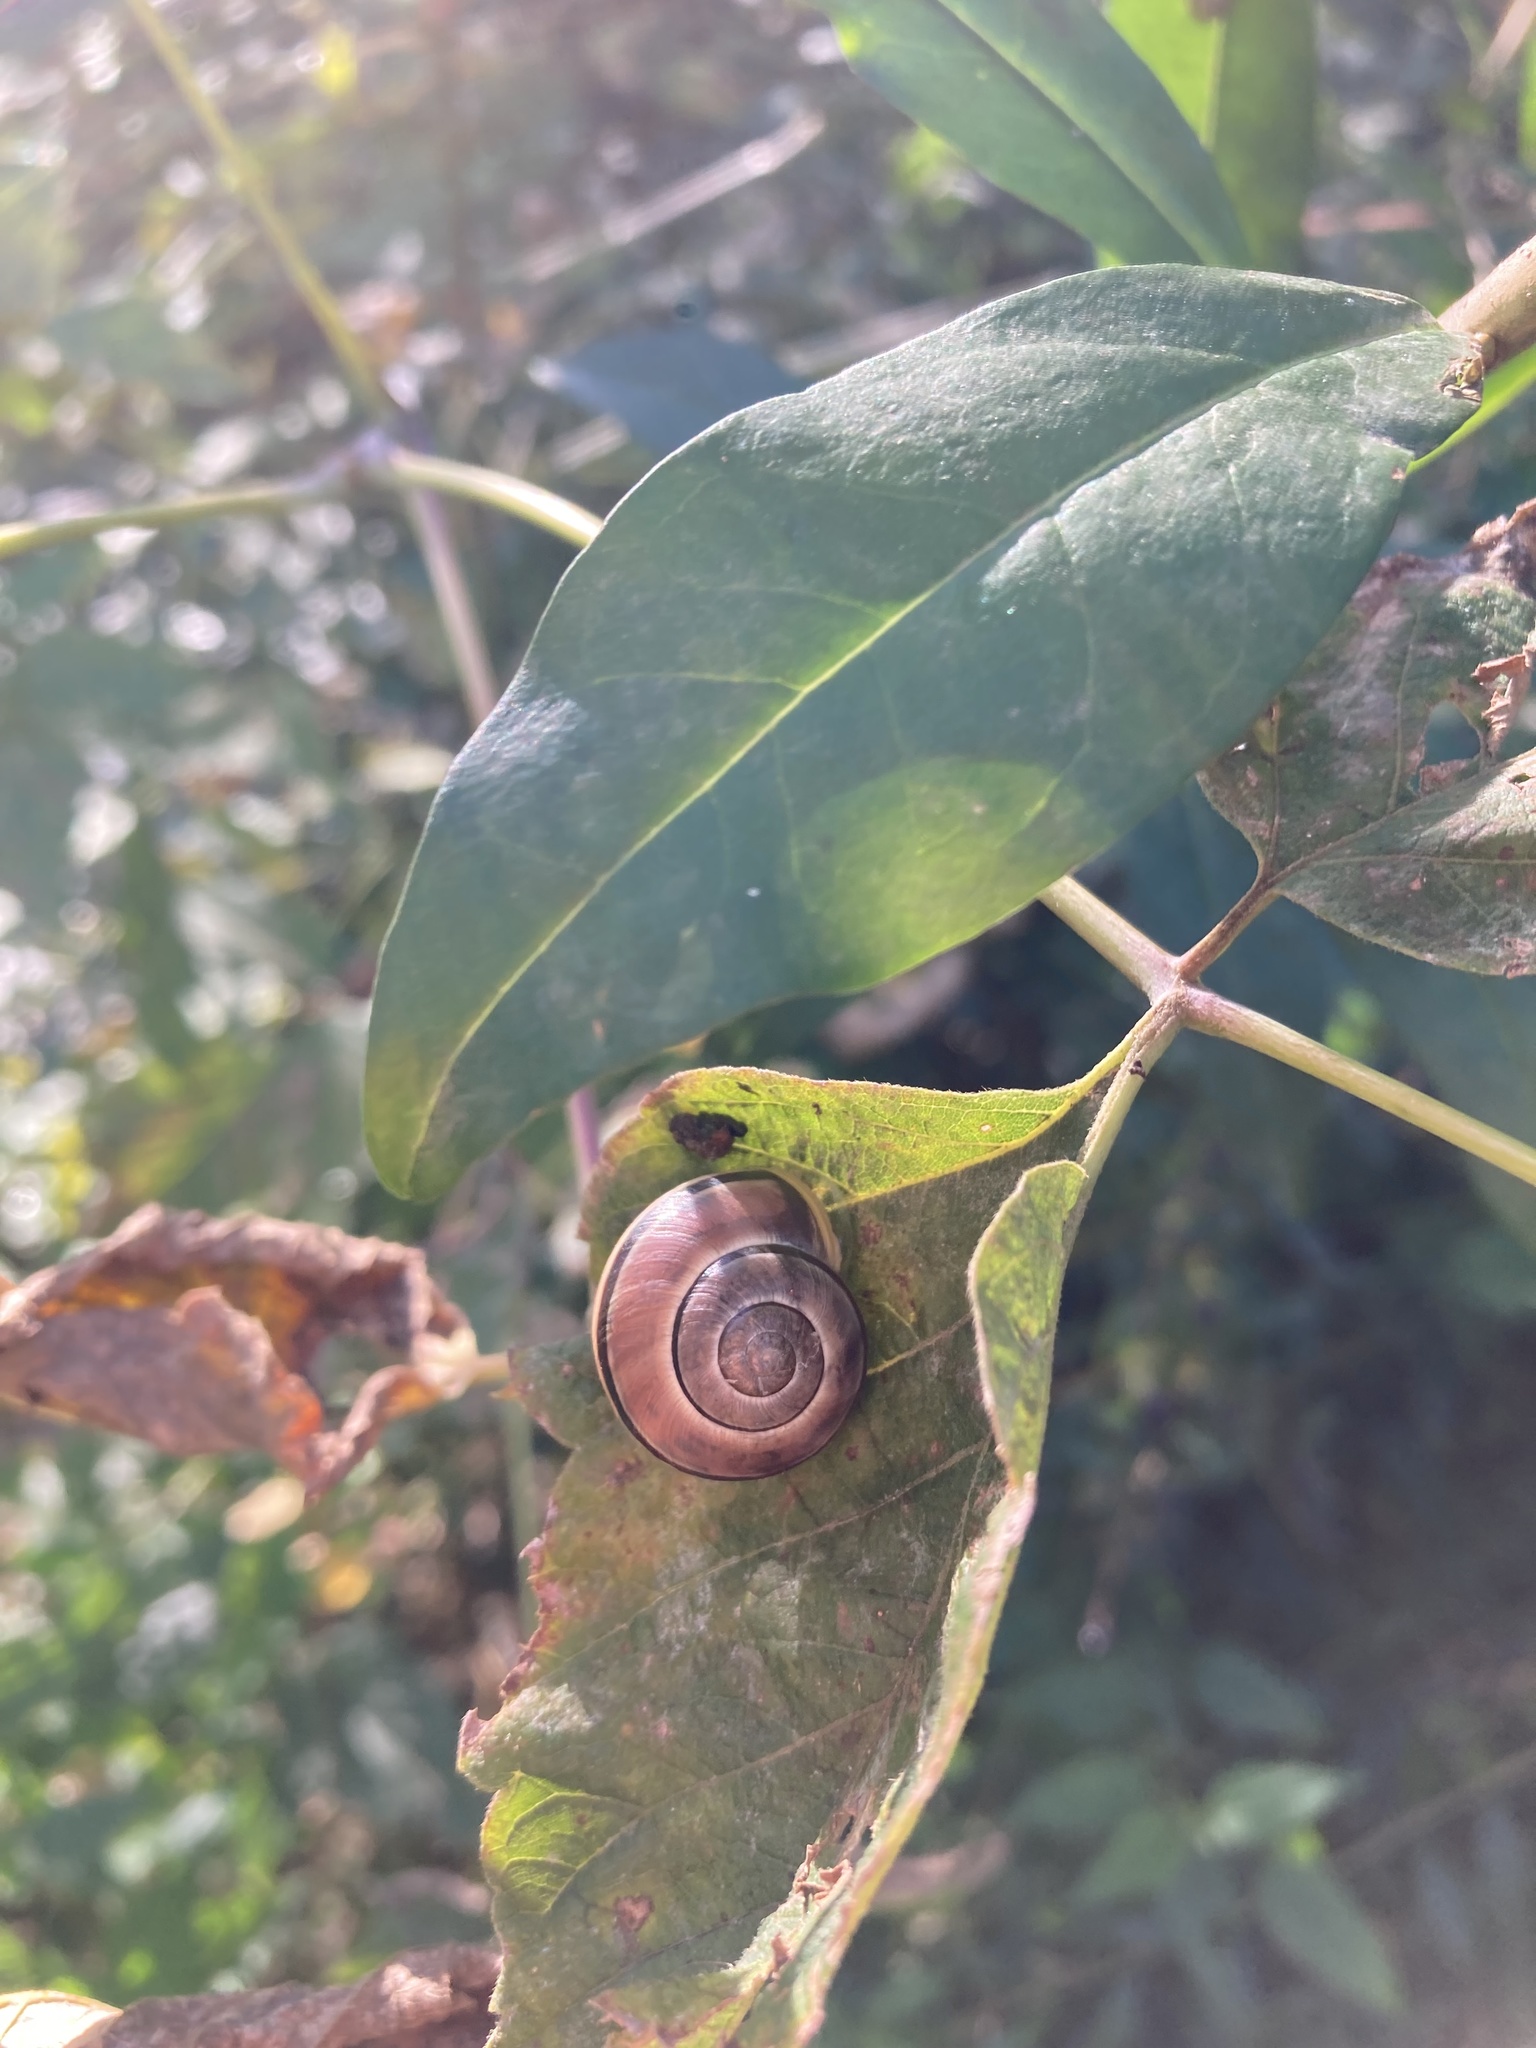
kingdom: Animalia
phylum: Mollusca
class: Gastropoda
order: Stylommatophora
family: Helicidae
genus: Cepaea
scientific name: Cepaea nemoralis
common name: Grovesnail
